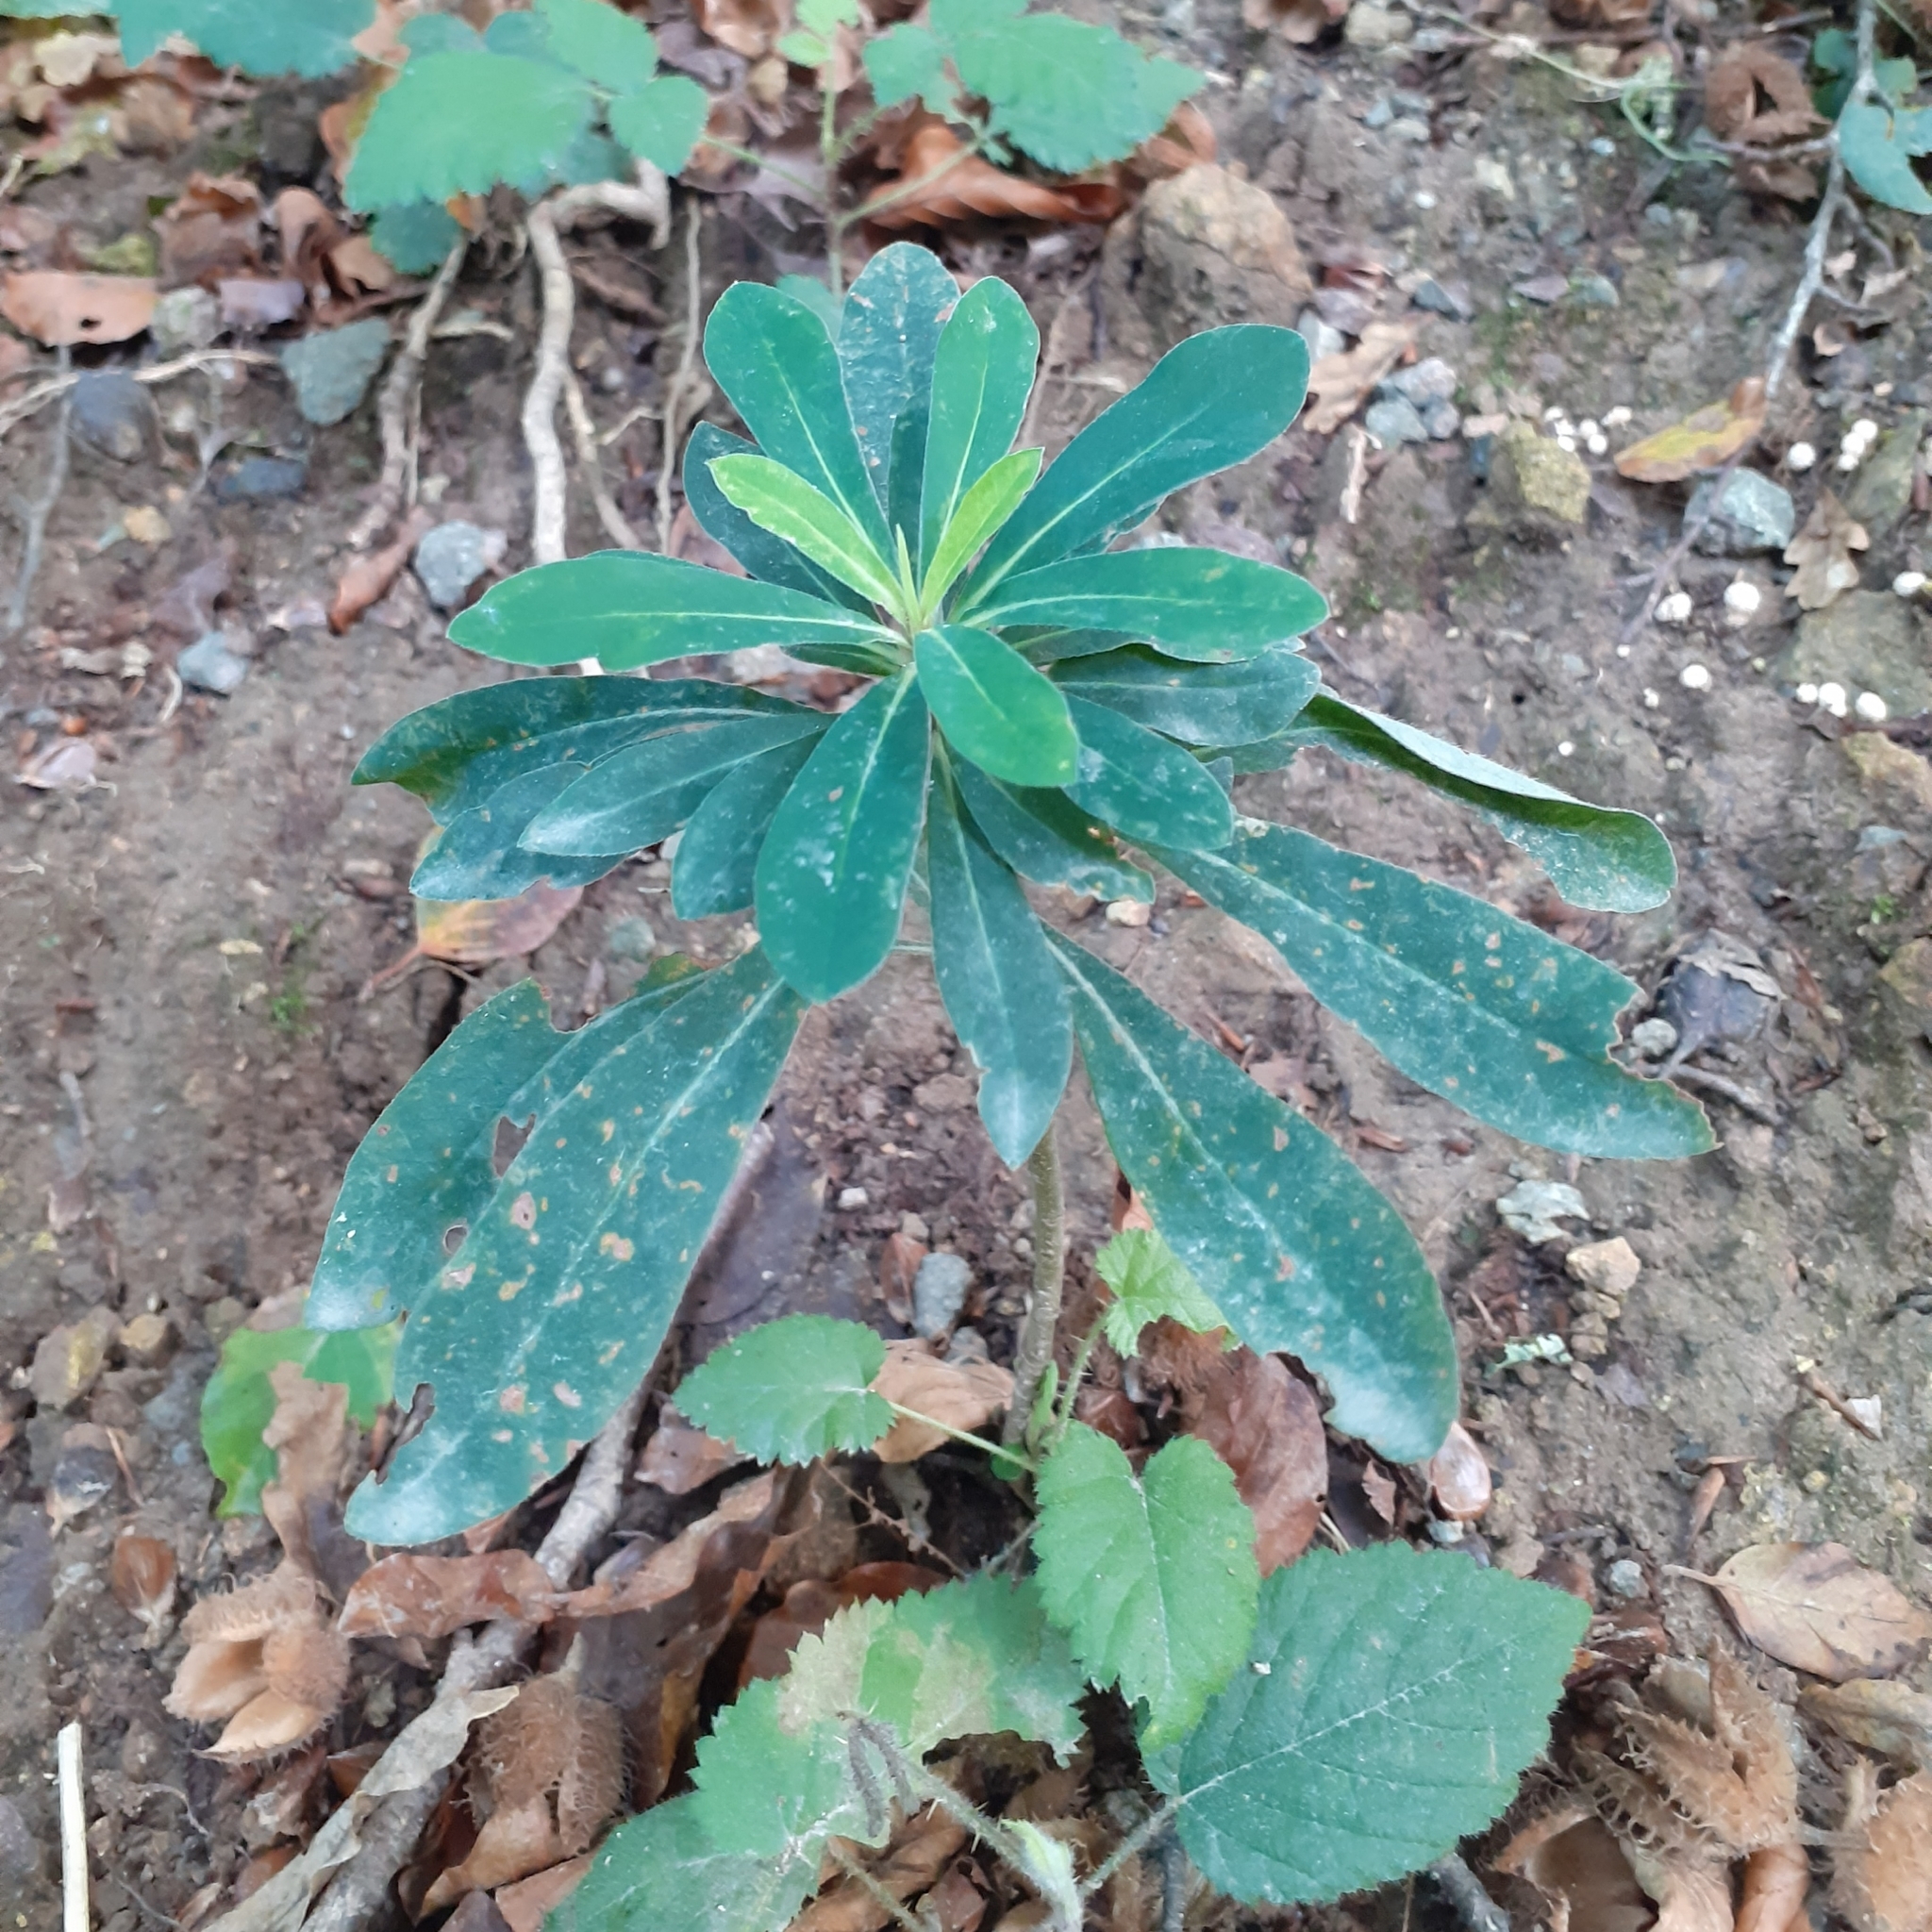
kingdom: Plantae
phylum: Tracheophyta
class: Magnoliopsida
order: Malpighiales
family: Euphorbiaceae
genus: Euphorbia
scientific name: Euphorbia amygdaloides
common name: Wood spurge
